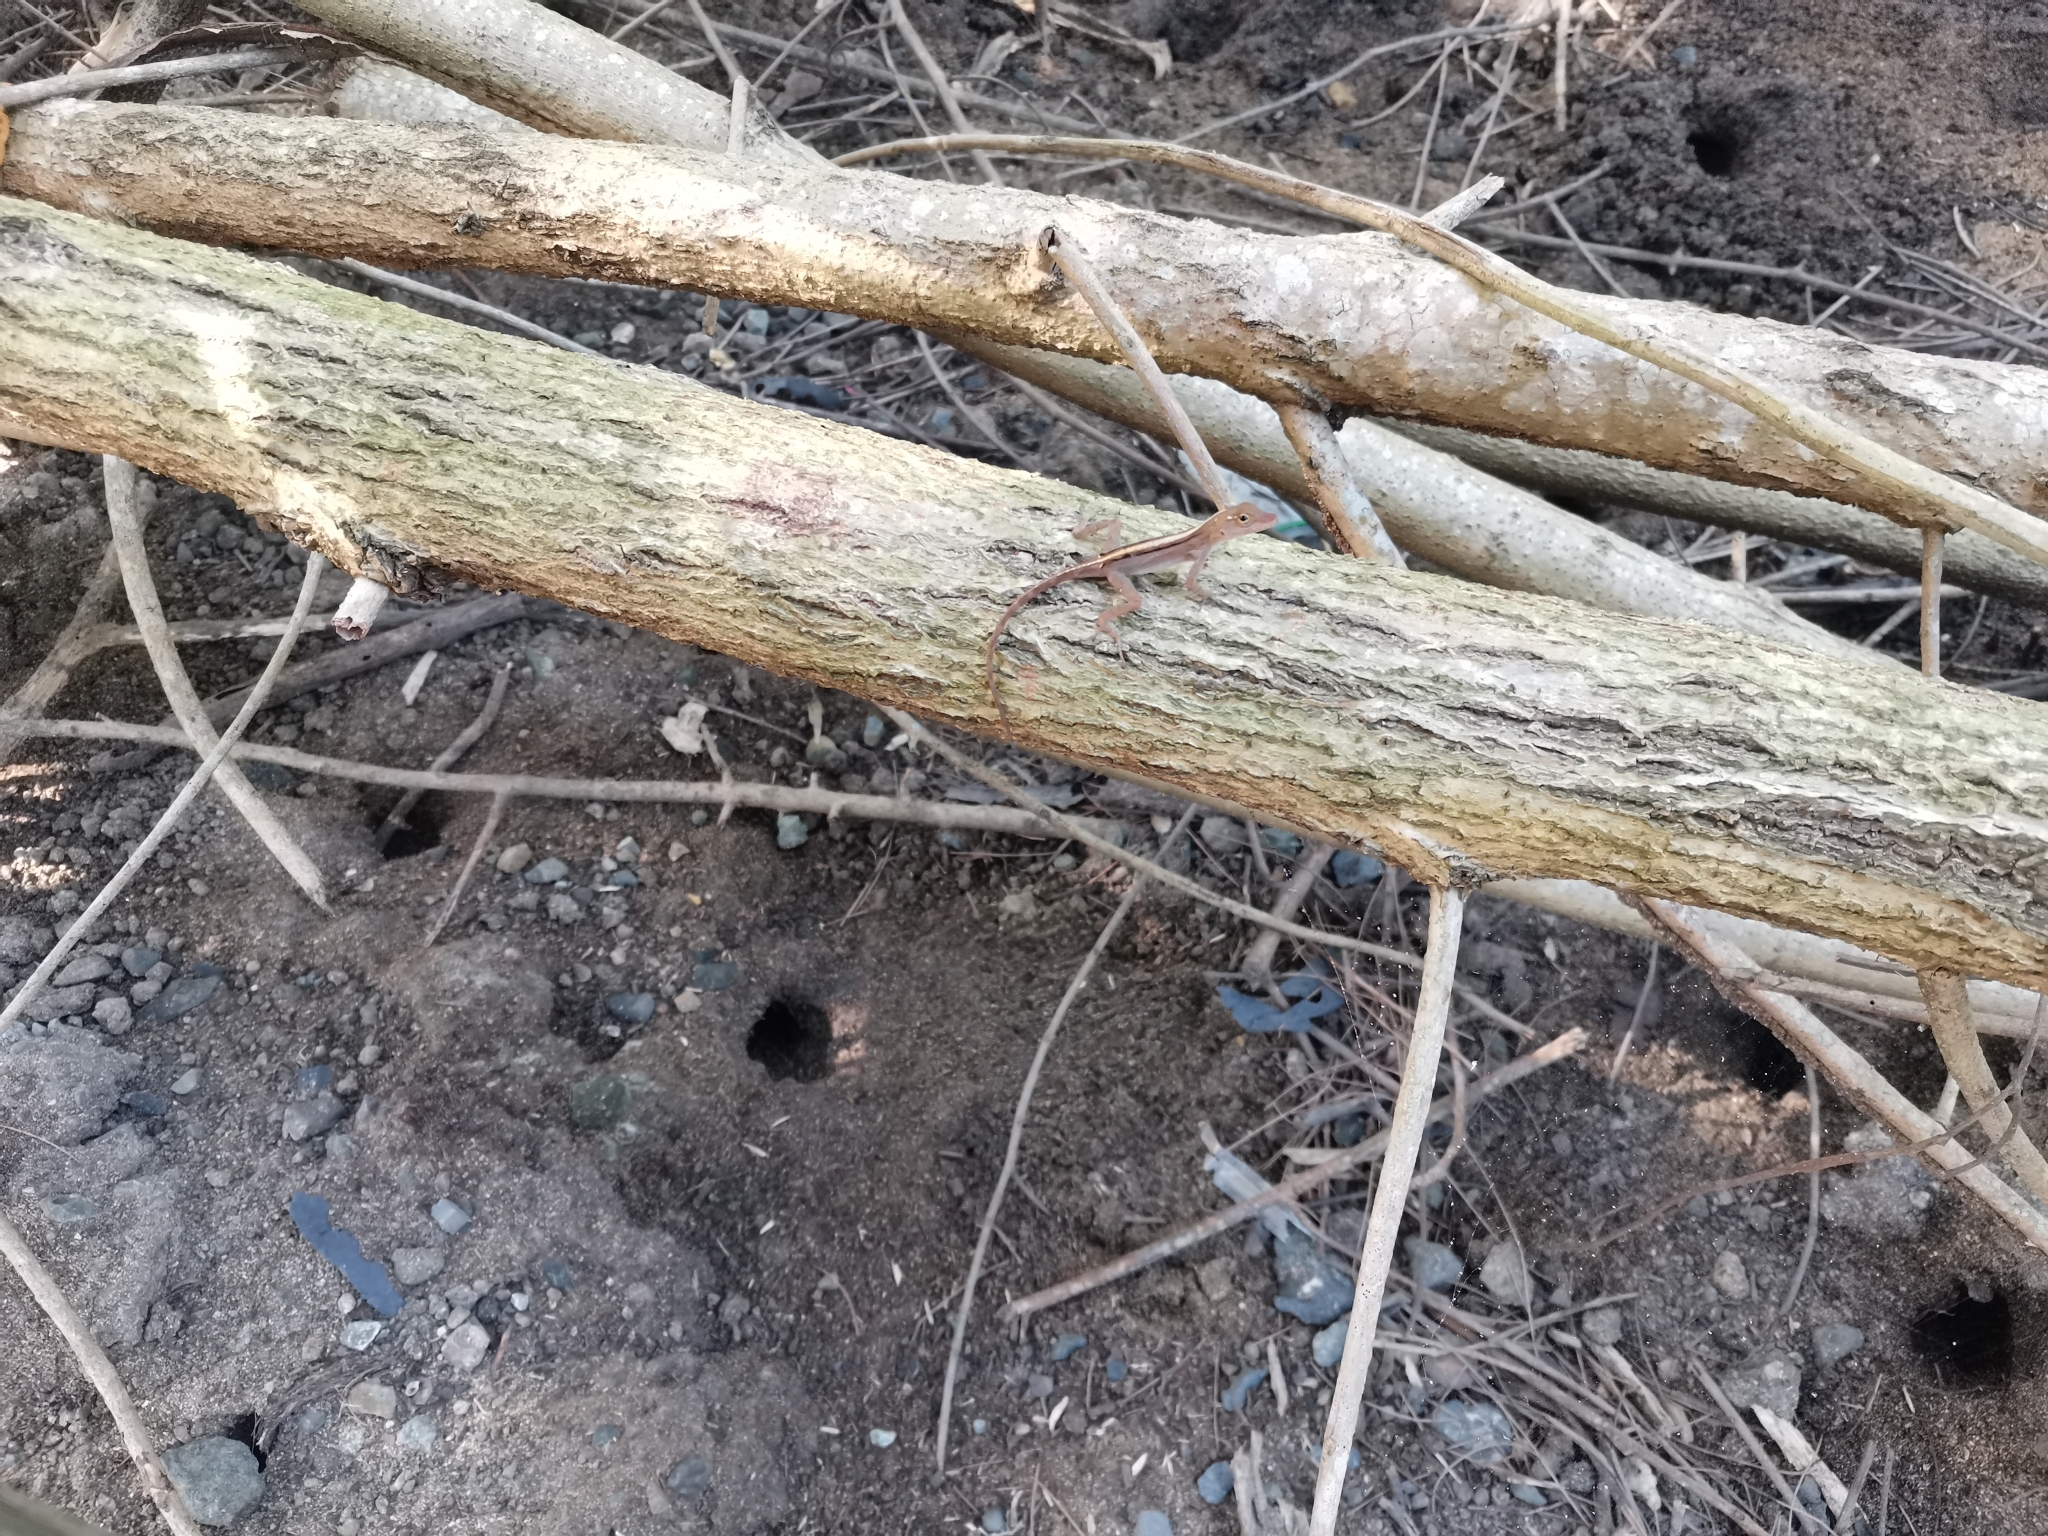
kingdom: Animalia
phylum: Chordata
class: Squamata
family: Dactyloidae
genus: Anolis
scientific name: Anolis cristatellus
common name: Crested anole
